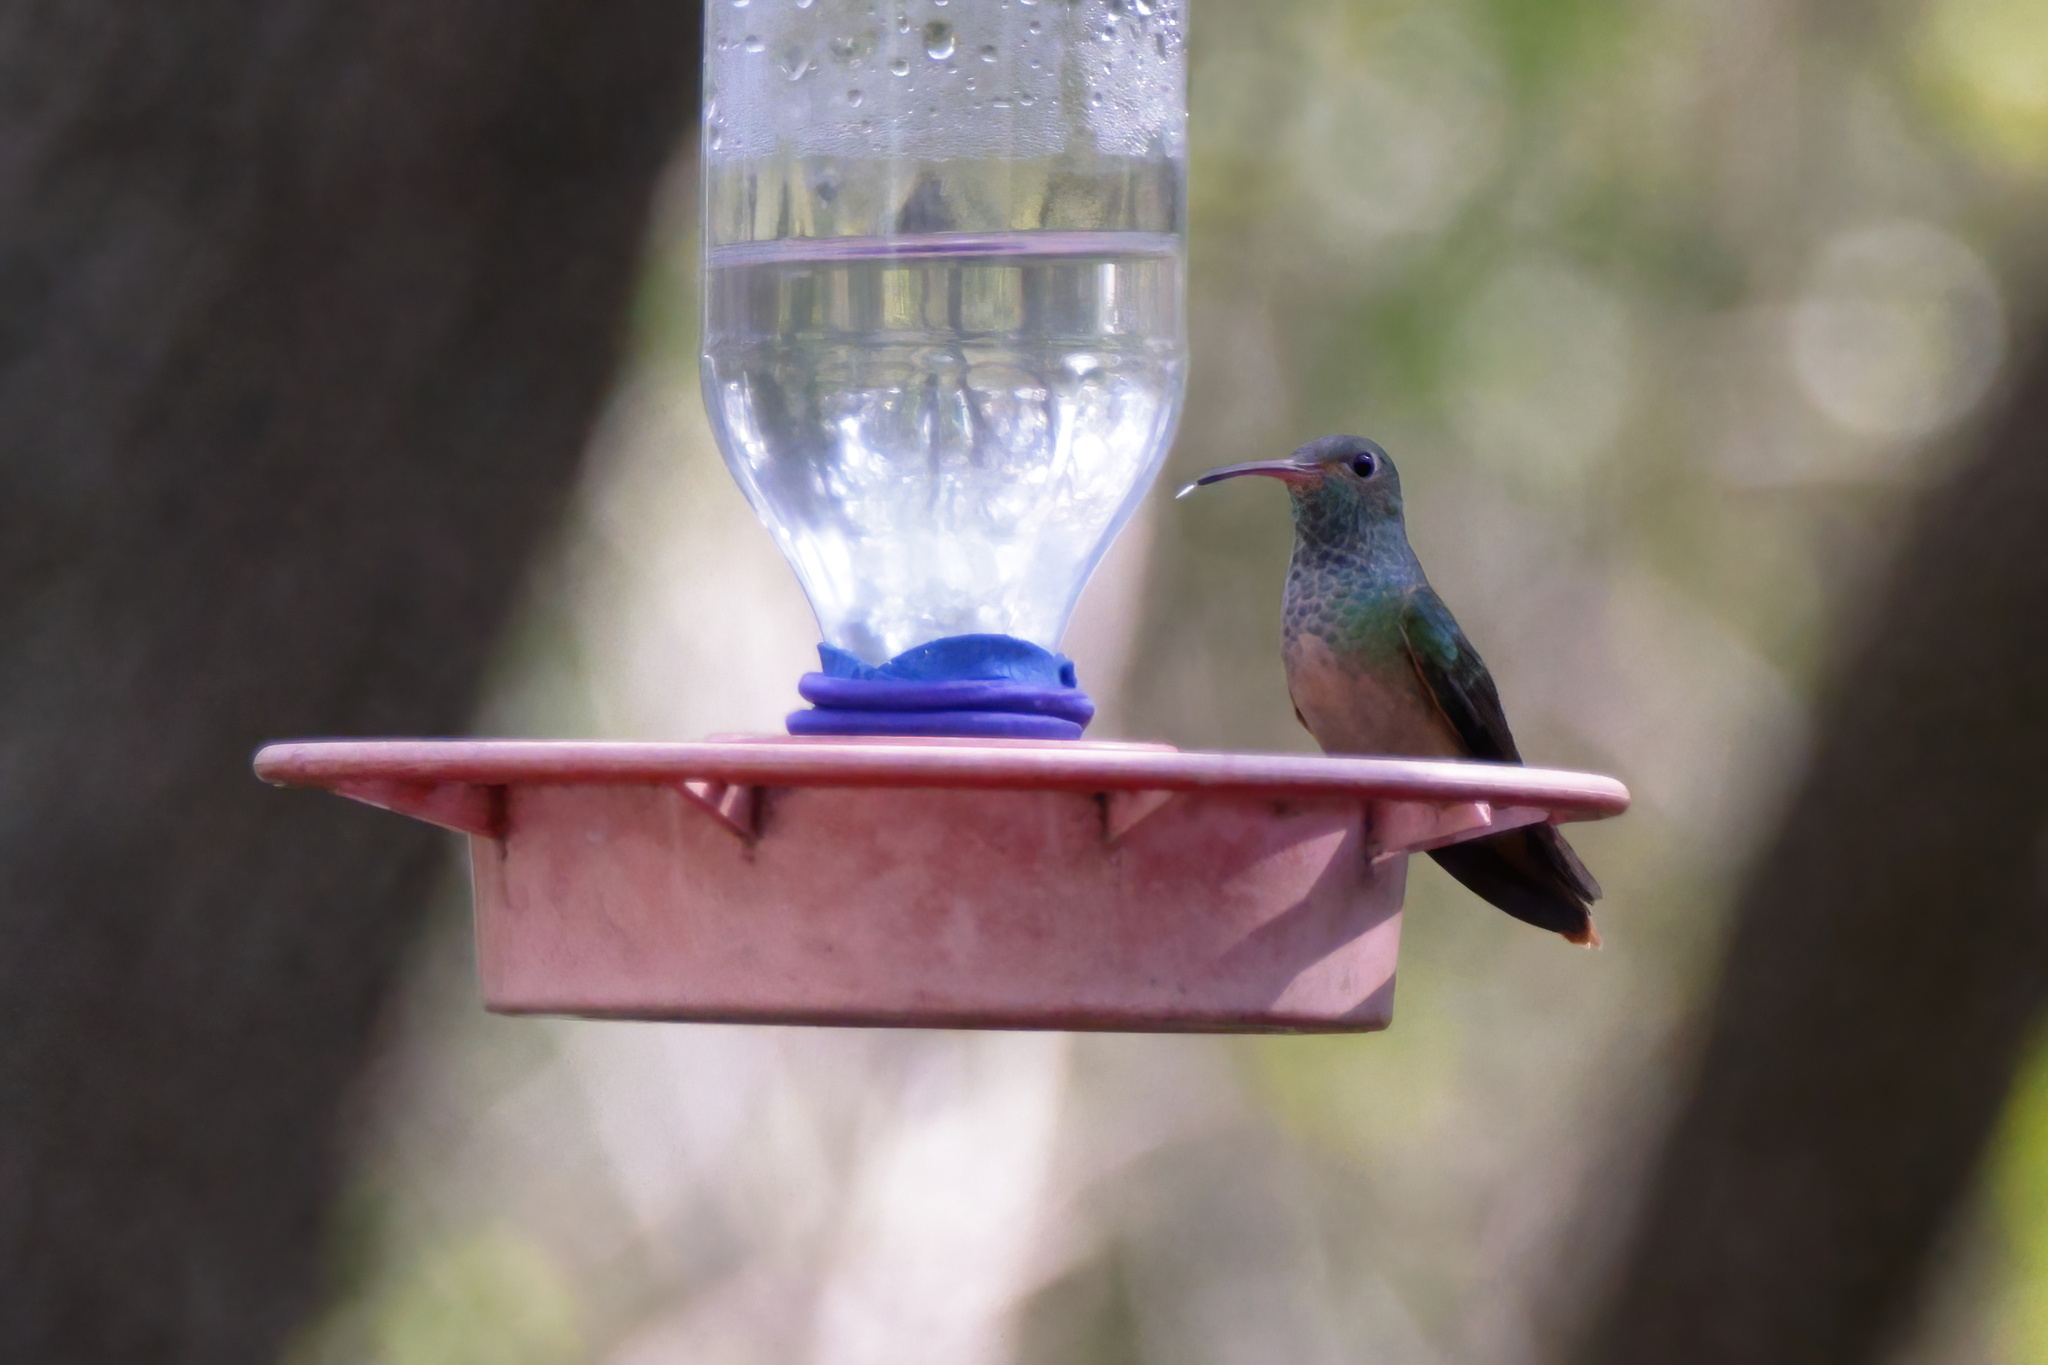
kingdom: Animalia
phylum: Chordata
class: Aves
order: Apodiformes
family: Trochilidae
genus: Amazilia
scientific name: Amazilia yucatanensis
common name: Buff-bellied hummingbird
